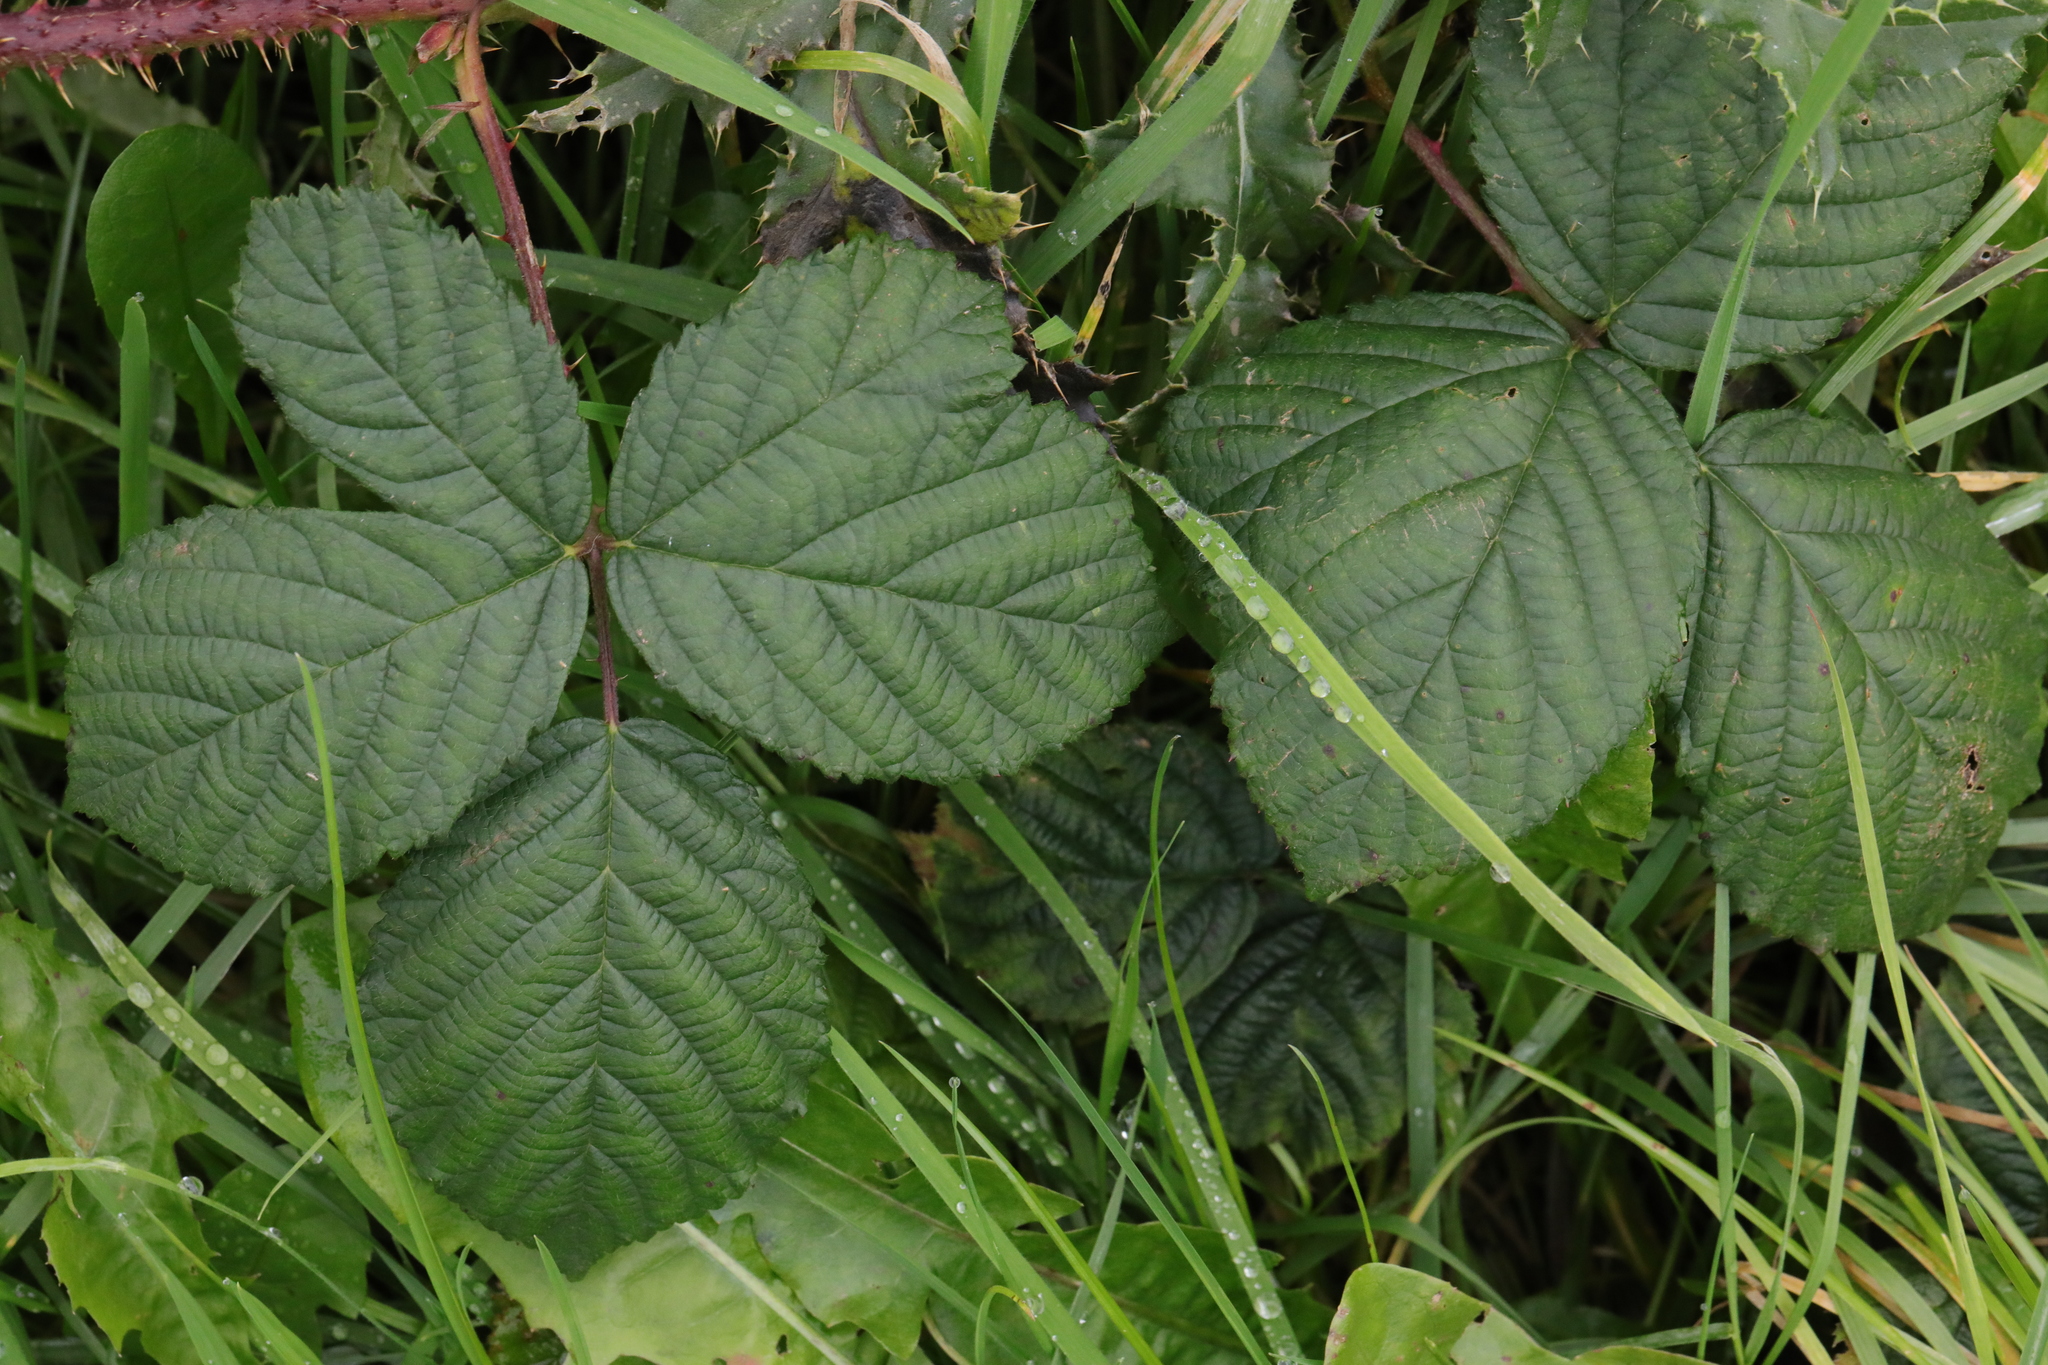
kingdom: Plantae
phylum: Tracheophyta
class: Magnoliopsida
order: Rosales
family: Rosaceae
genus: Rubus
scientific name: Rubus horrefactus
